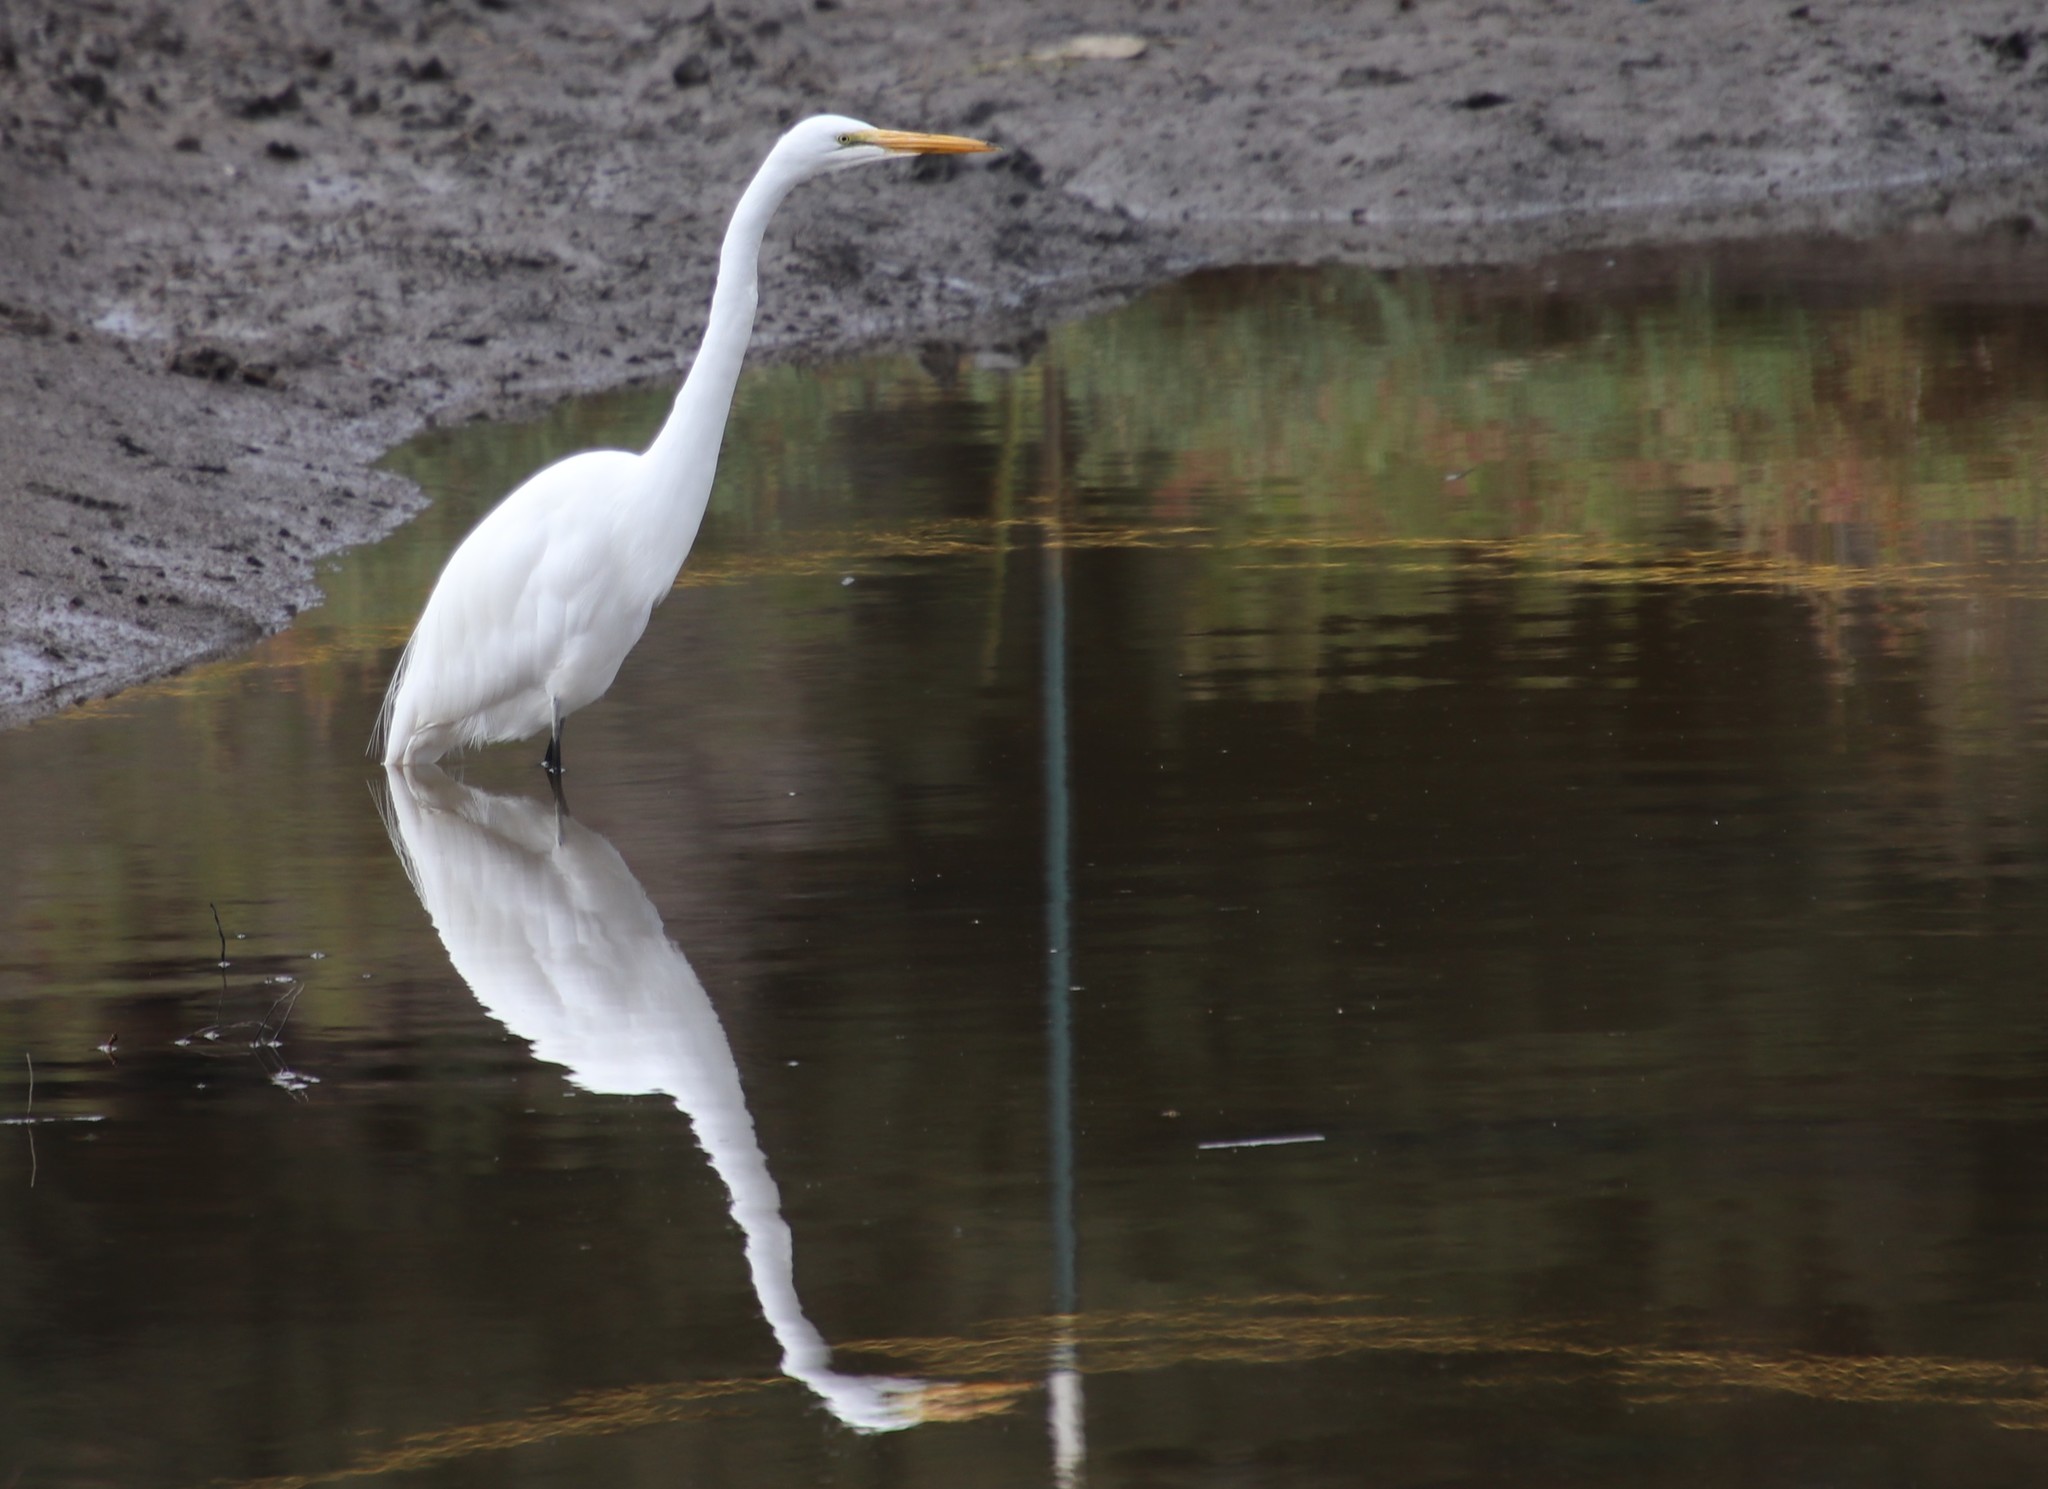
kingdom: Animalia
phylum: Chordata
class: Aves
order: Pelecaniformes
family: Ardeidae
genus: Ardea
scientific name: Ardea alba
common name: Great egret
